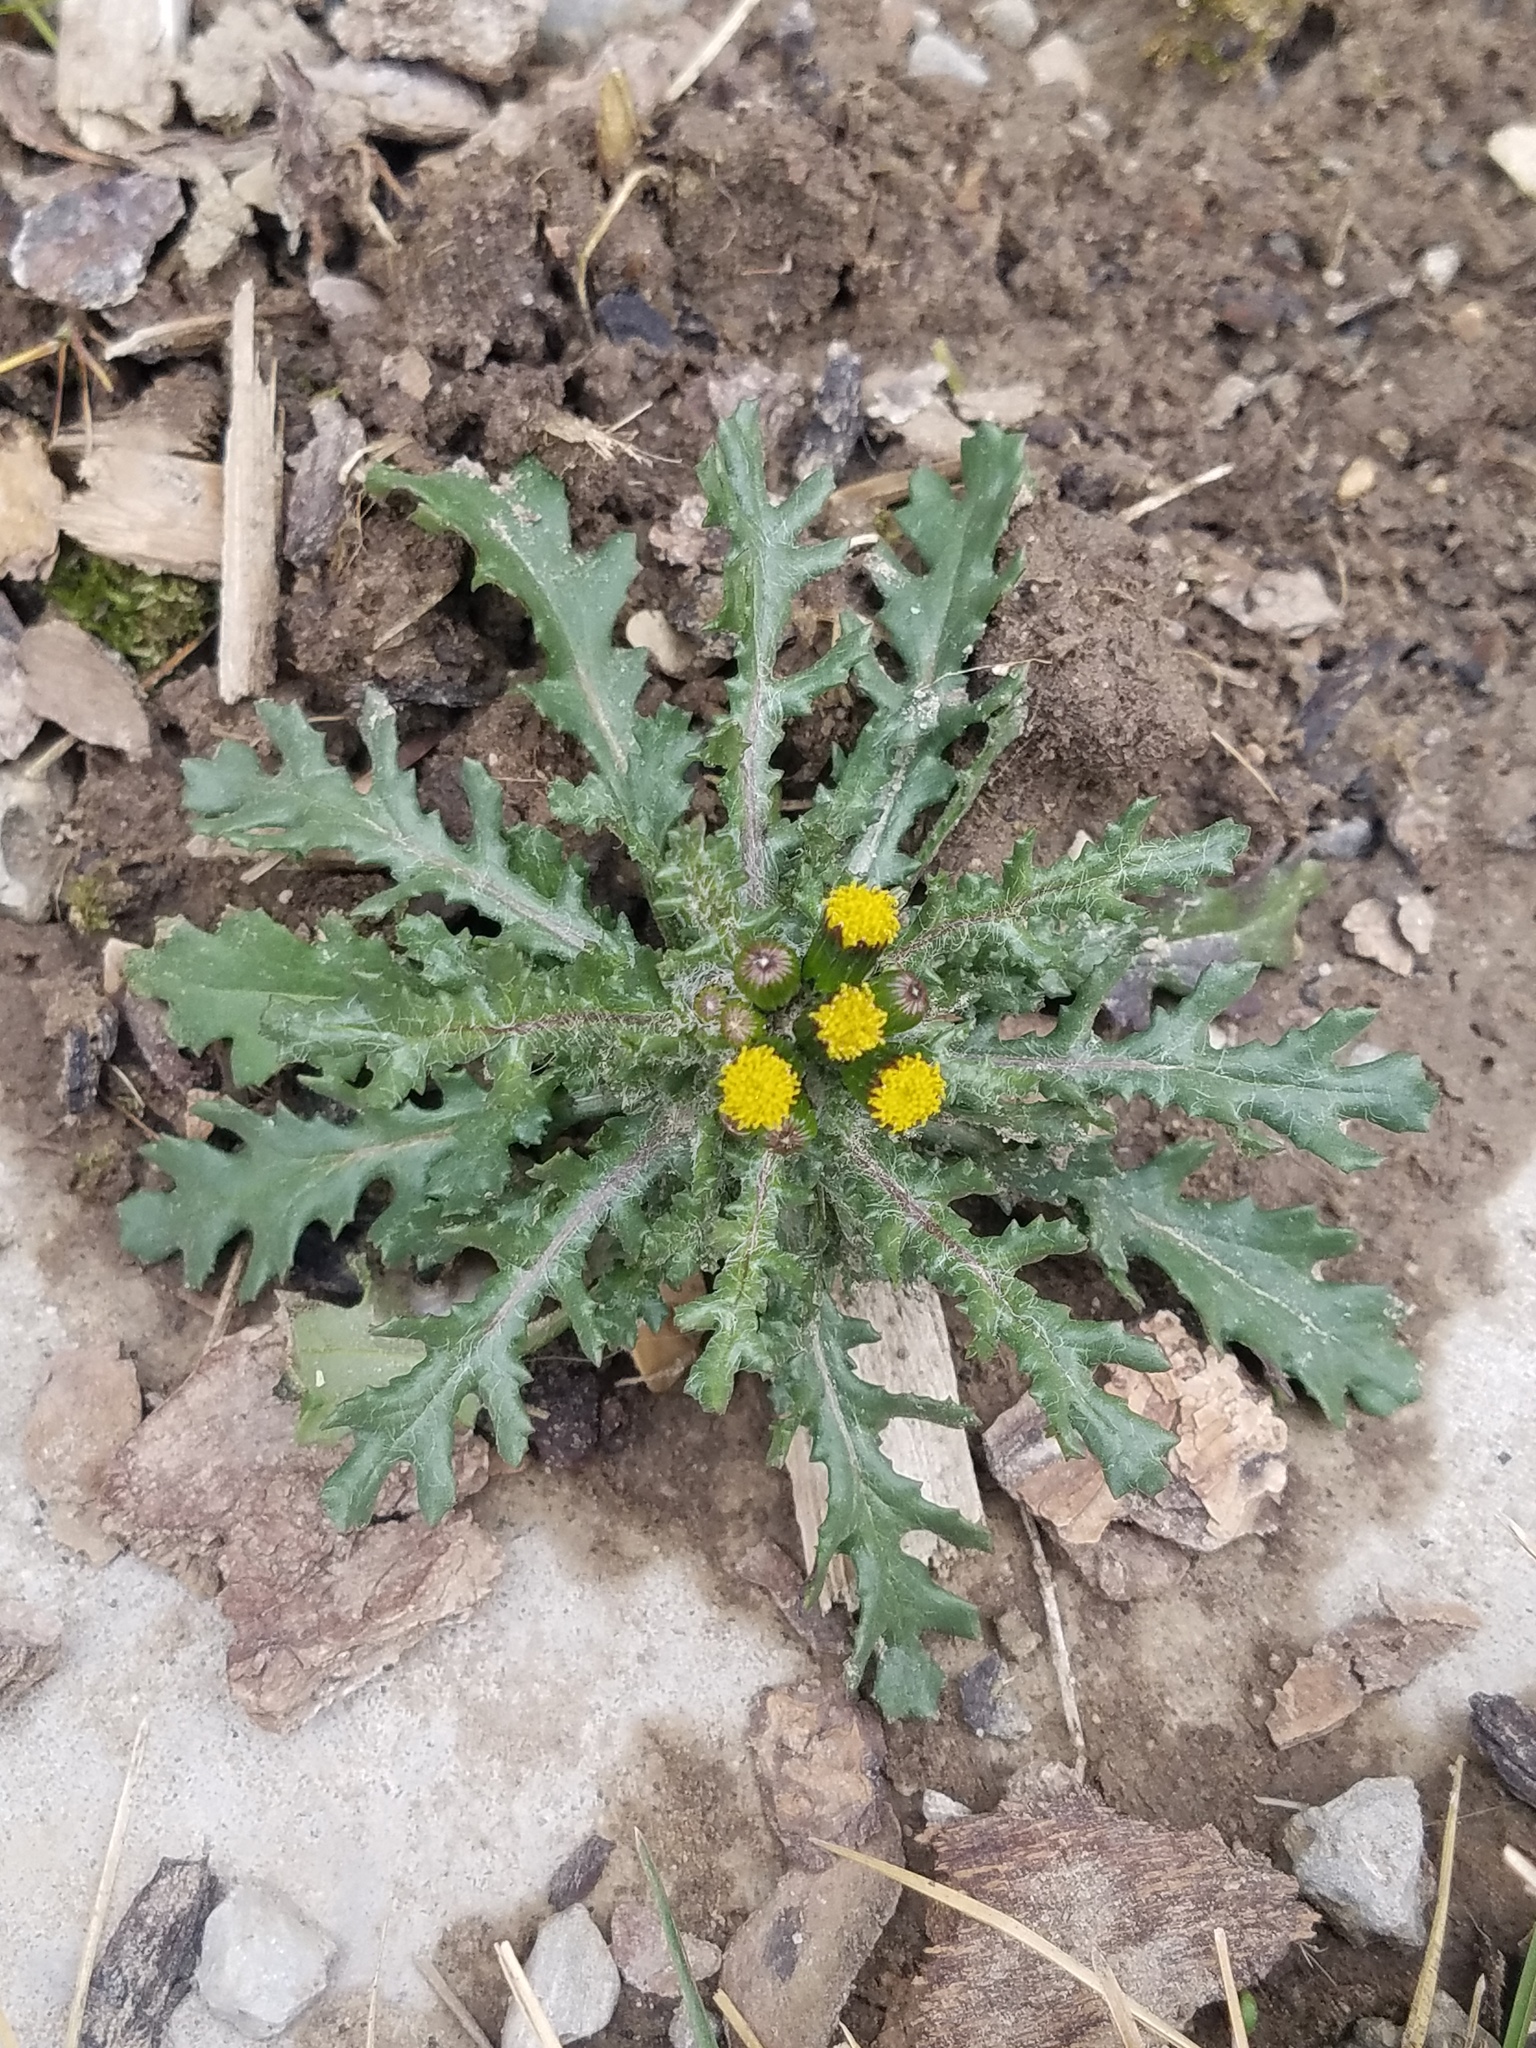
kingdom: Plantae
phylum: Tracheophyta
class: Magnoliopsida
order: Asterales
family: Asteraceae
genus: Senecio
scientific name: Senecio vulgaris
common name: Old-man-in-the-spring
